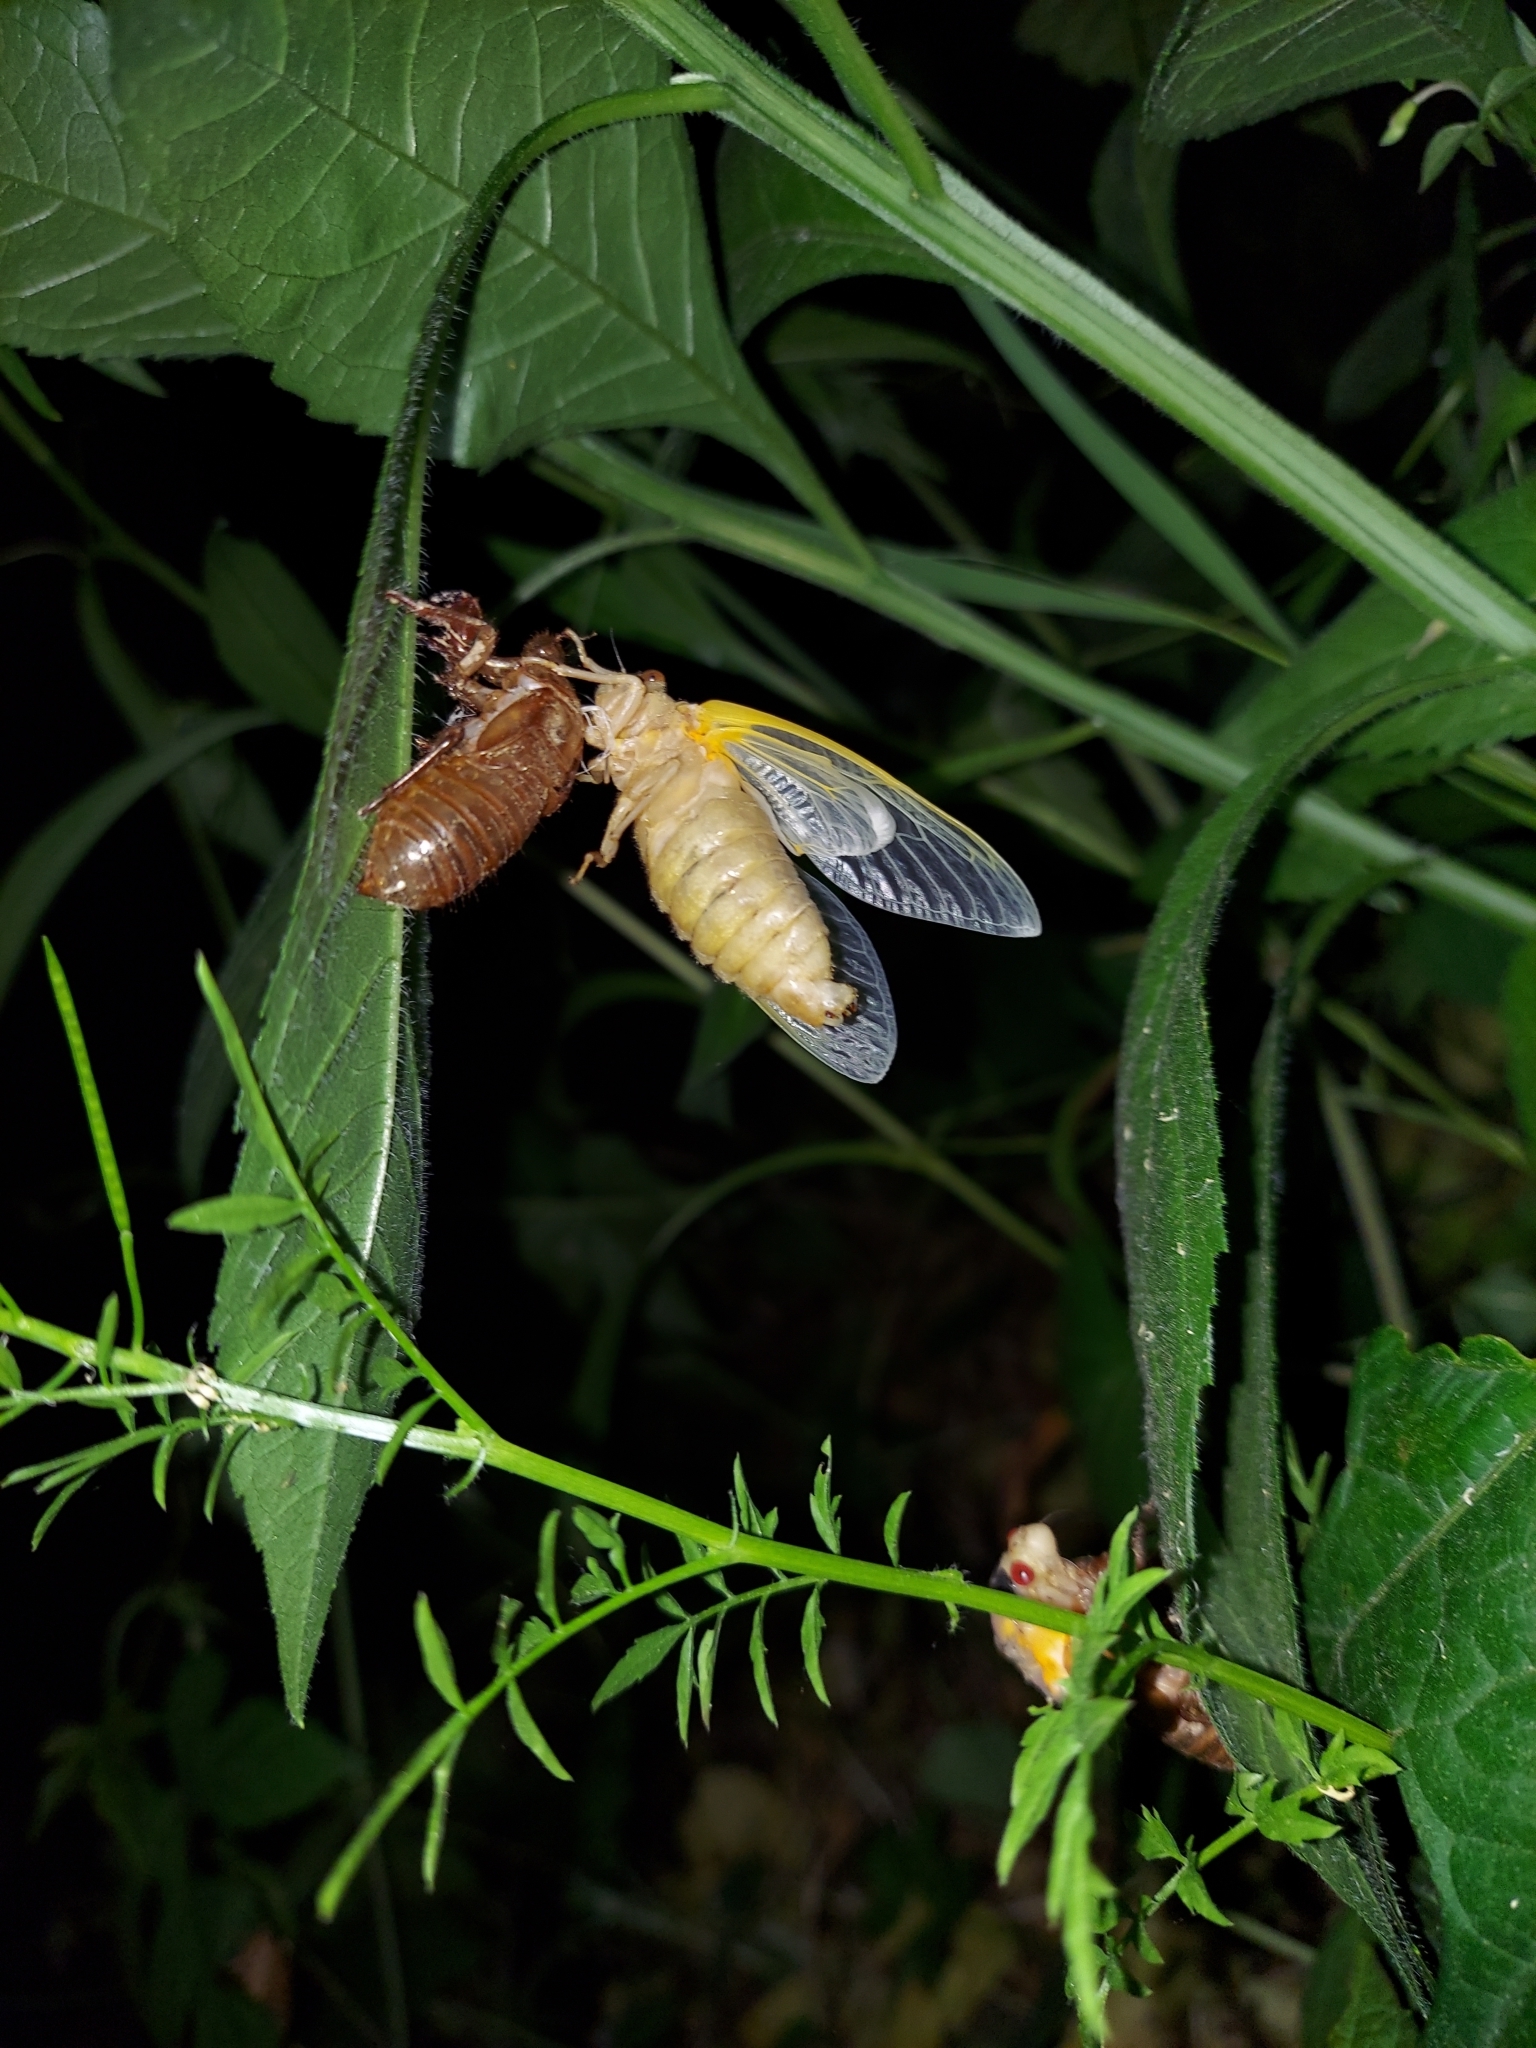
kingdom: Animalia
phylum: Arthropoda
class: Insecta
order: Hemiptera
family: Cicadidae
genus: Magicicada
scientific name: Magicicada
